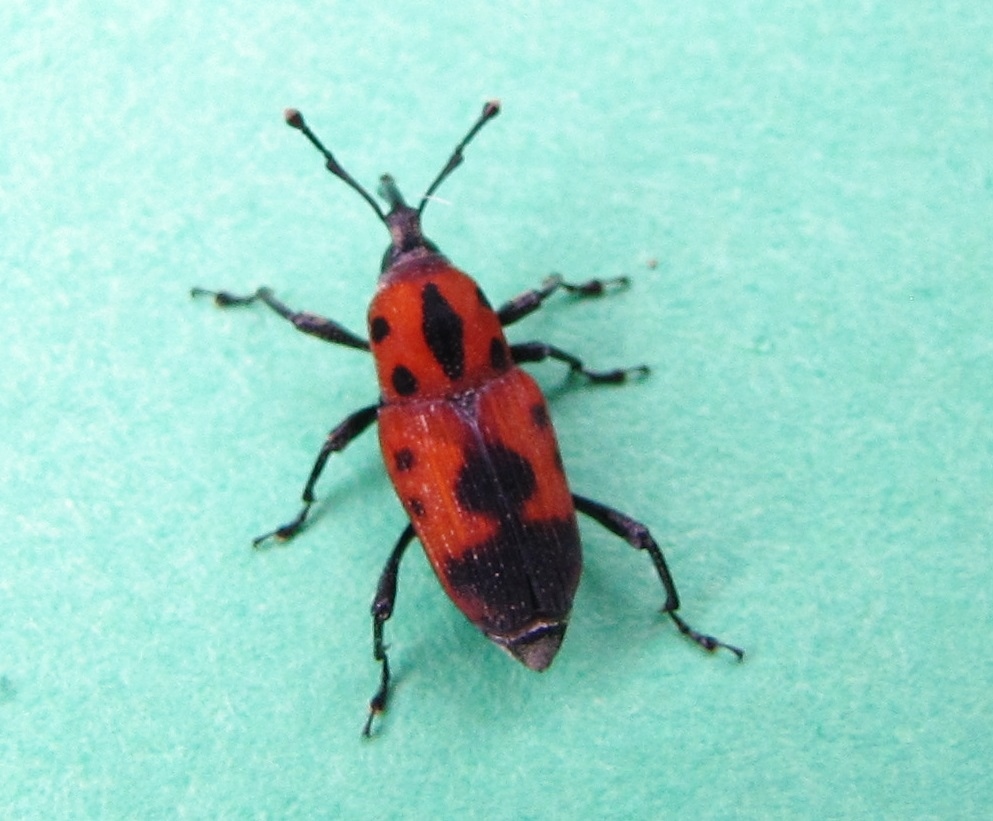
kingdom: Animalia
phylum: Arthropoda
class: Insecta
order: Coleoptera
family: Dryophthoridae
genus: Rhodobaenus
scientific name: Rhodobaenus quinquepunctatus
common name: Cocklebur weevil
